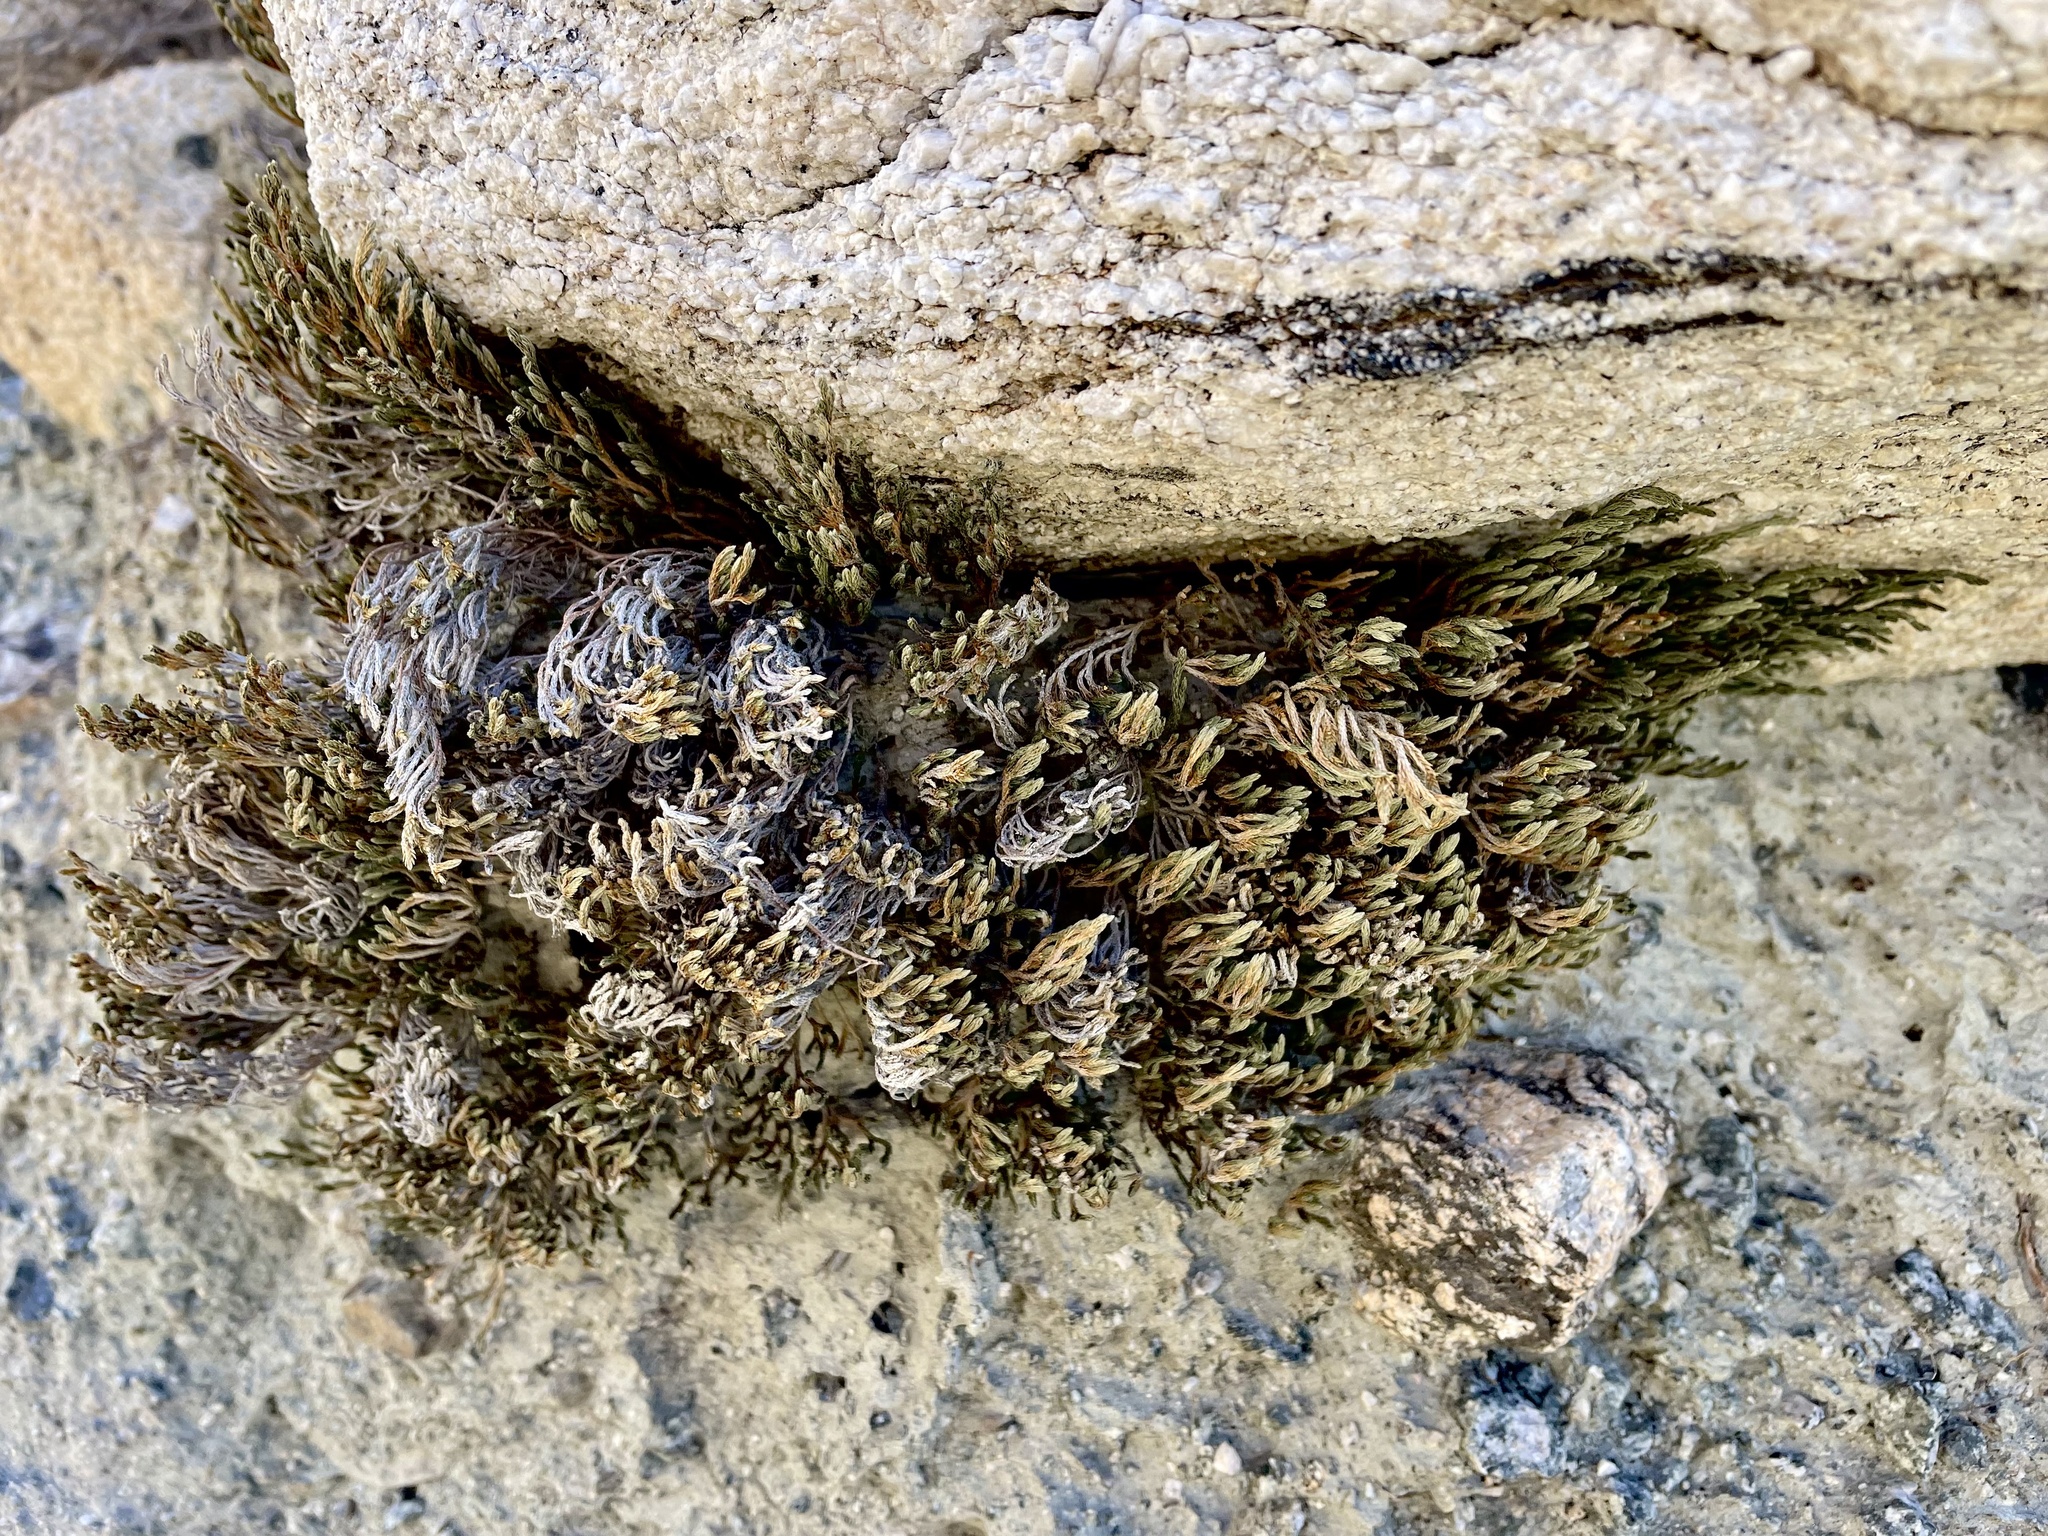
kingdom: Plantae
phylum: Tracheophyta
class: Lycopodiopsida
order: Selaginellales
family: Selaginellaceae
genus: Selaginella
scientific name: Selaginella bigelovii
